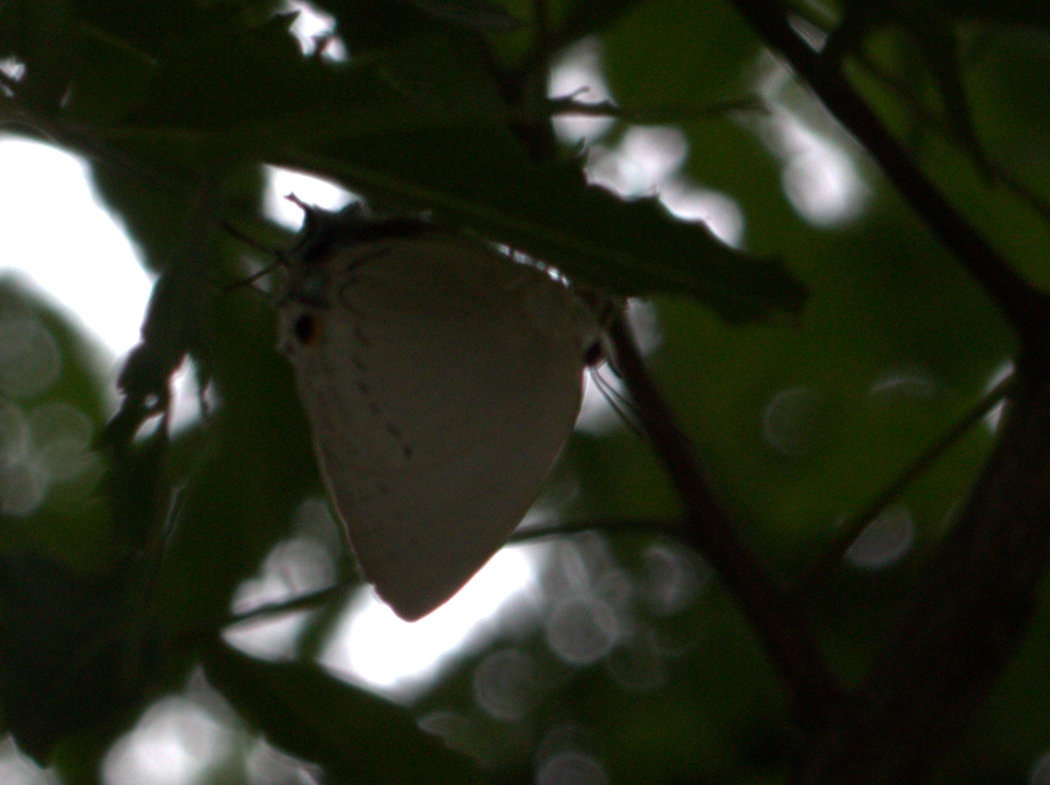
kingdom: Animalia
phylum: Arthropoda
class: Insecta
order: Lepidoptera
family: Lycaenidae
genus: Tajuria
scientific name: Tajuria cippus
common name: Peacock royal
